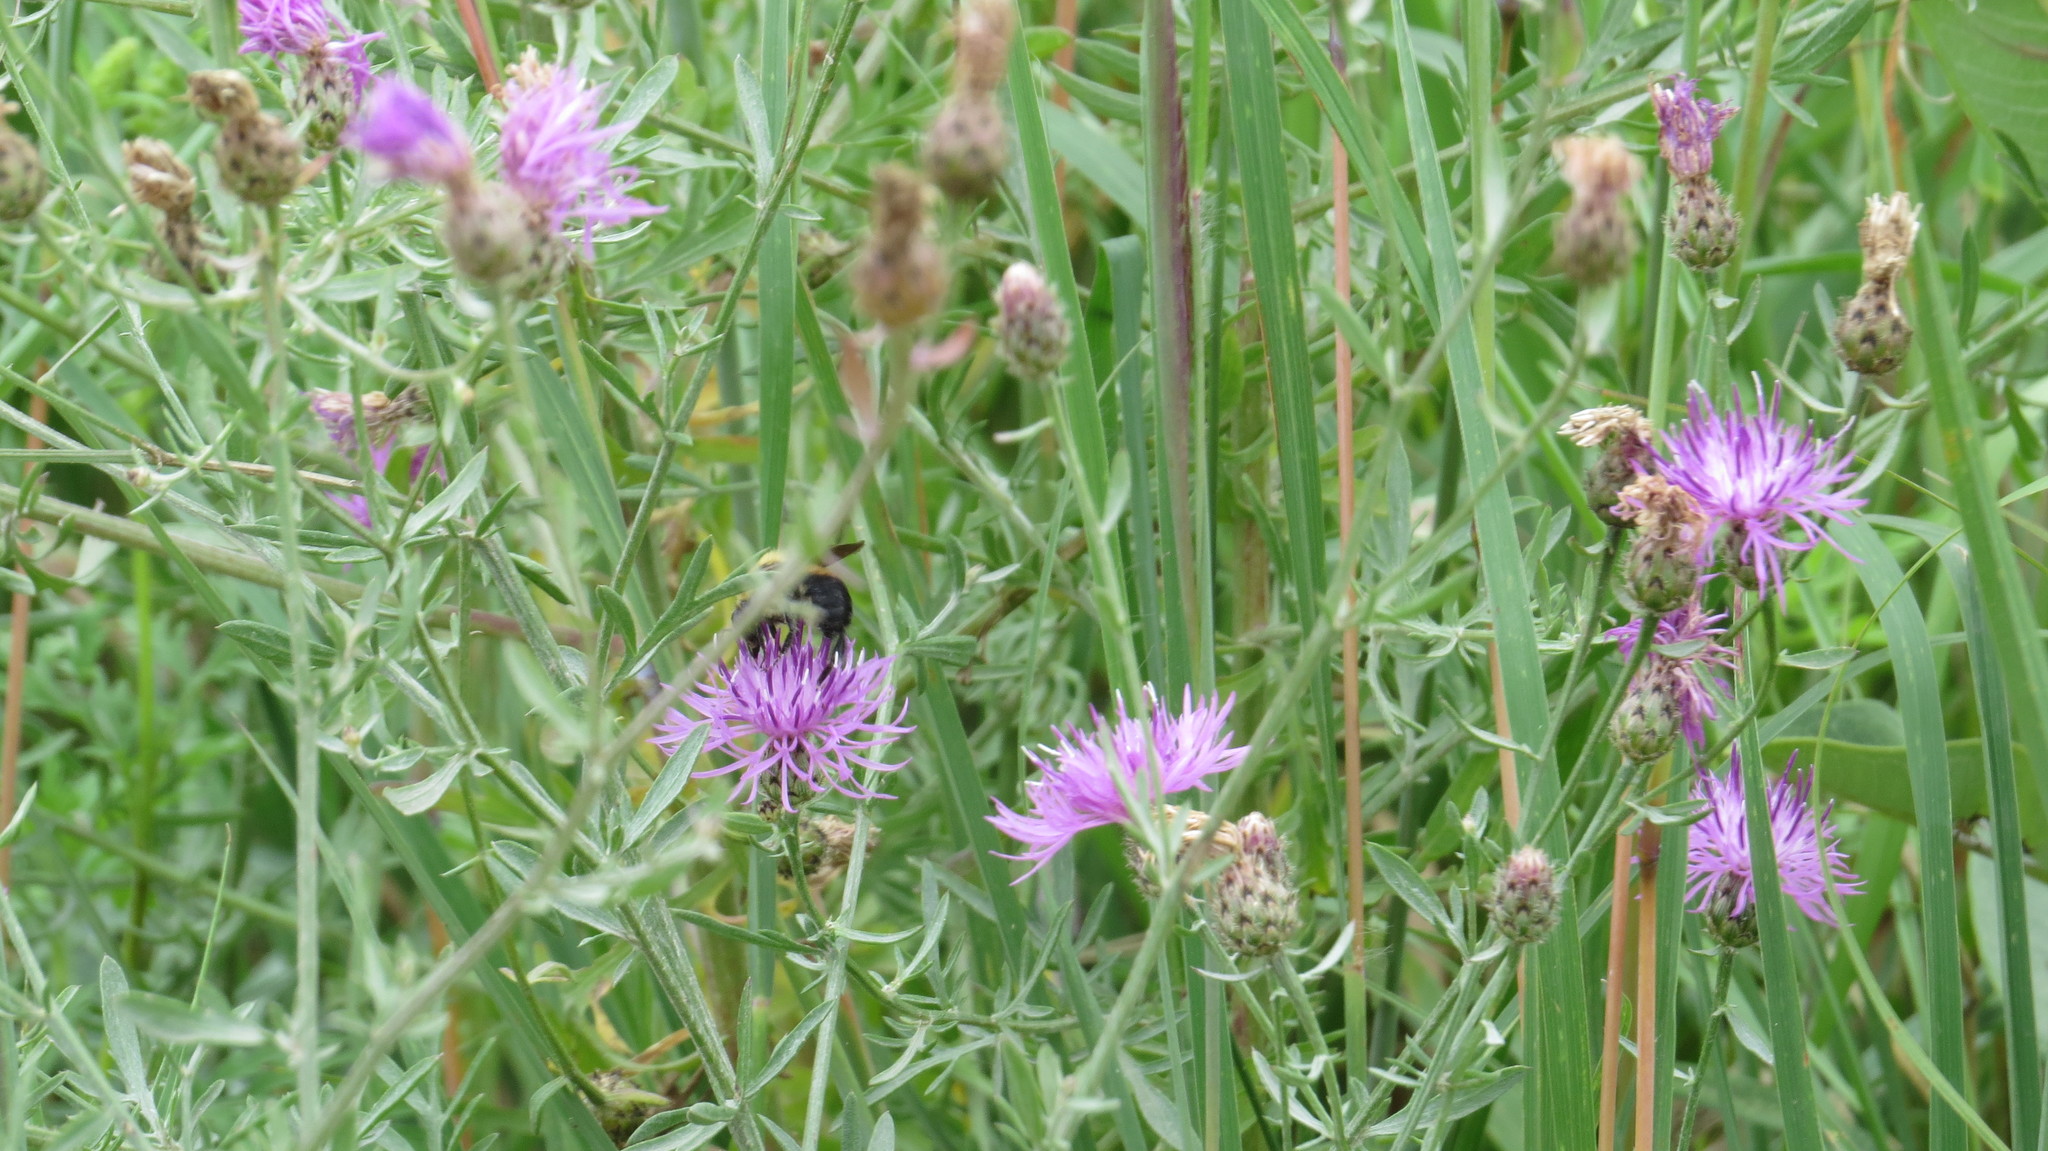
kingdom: Plantae
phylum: Tracheophyta
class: Magnoliopsida
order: Asterales
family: Asteraceae
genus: Centaurea
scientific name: Centaurea stoebe
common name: Spotted knapweed
